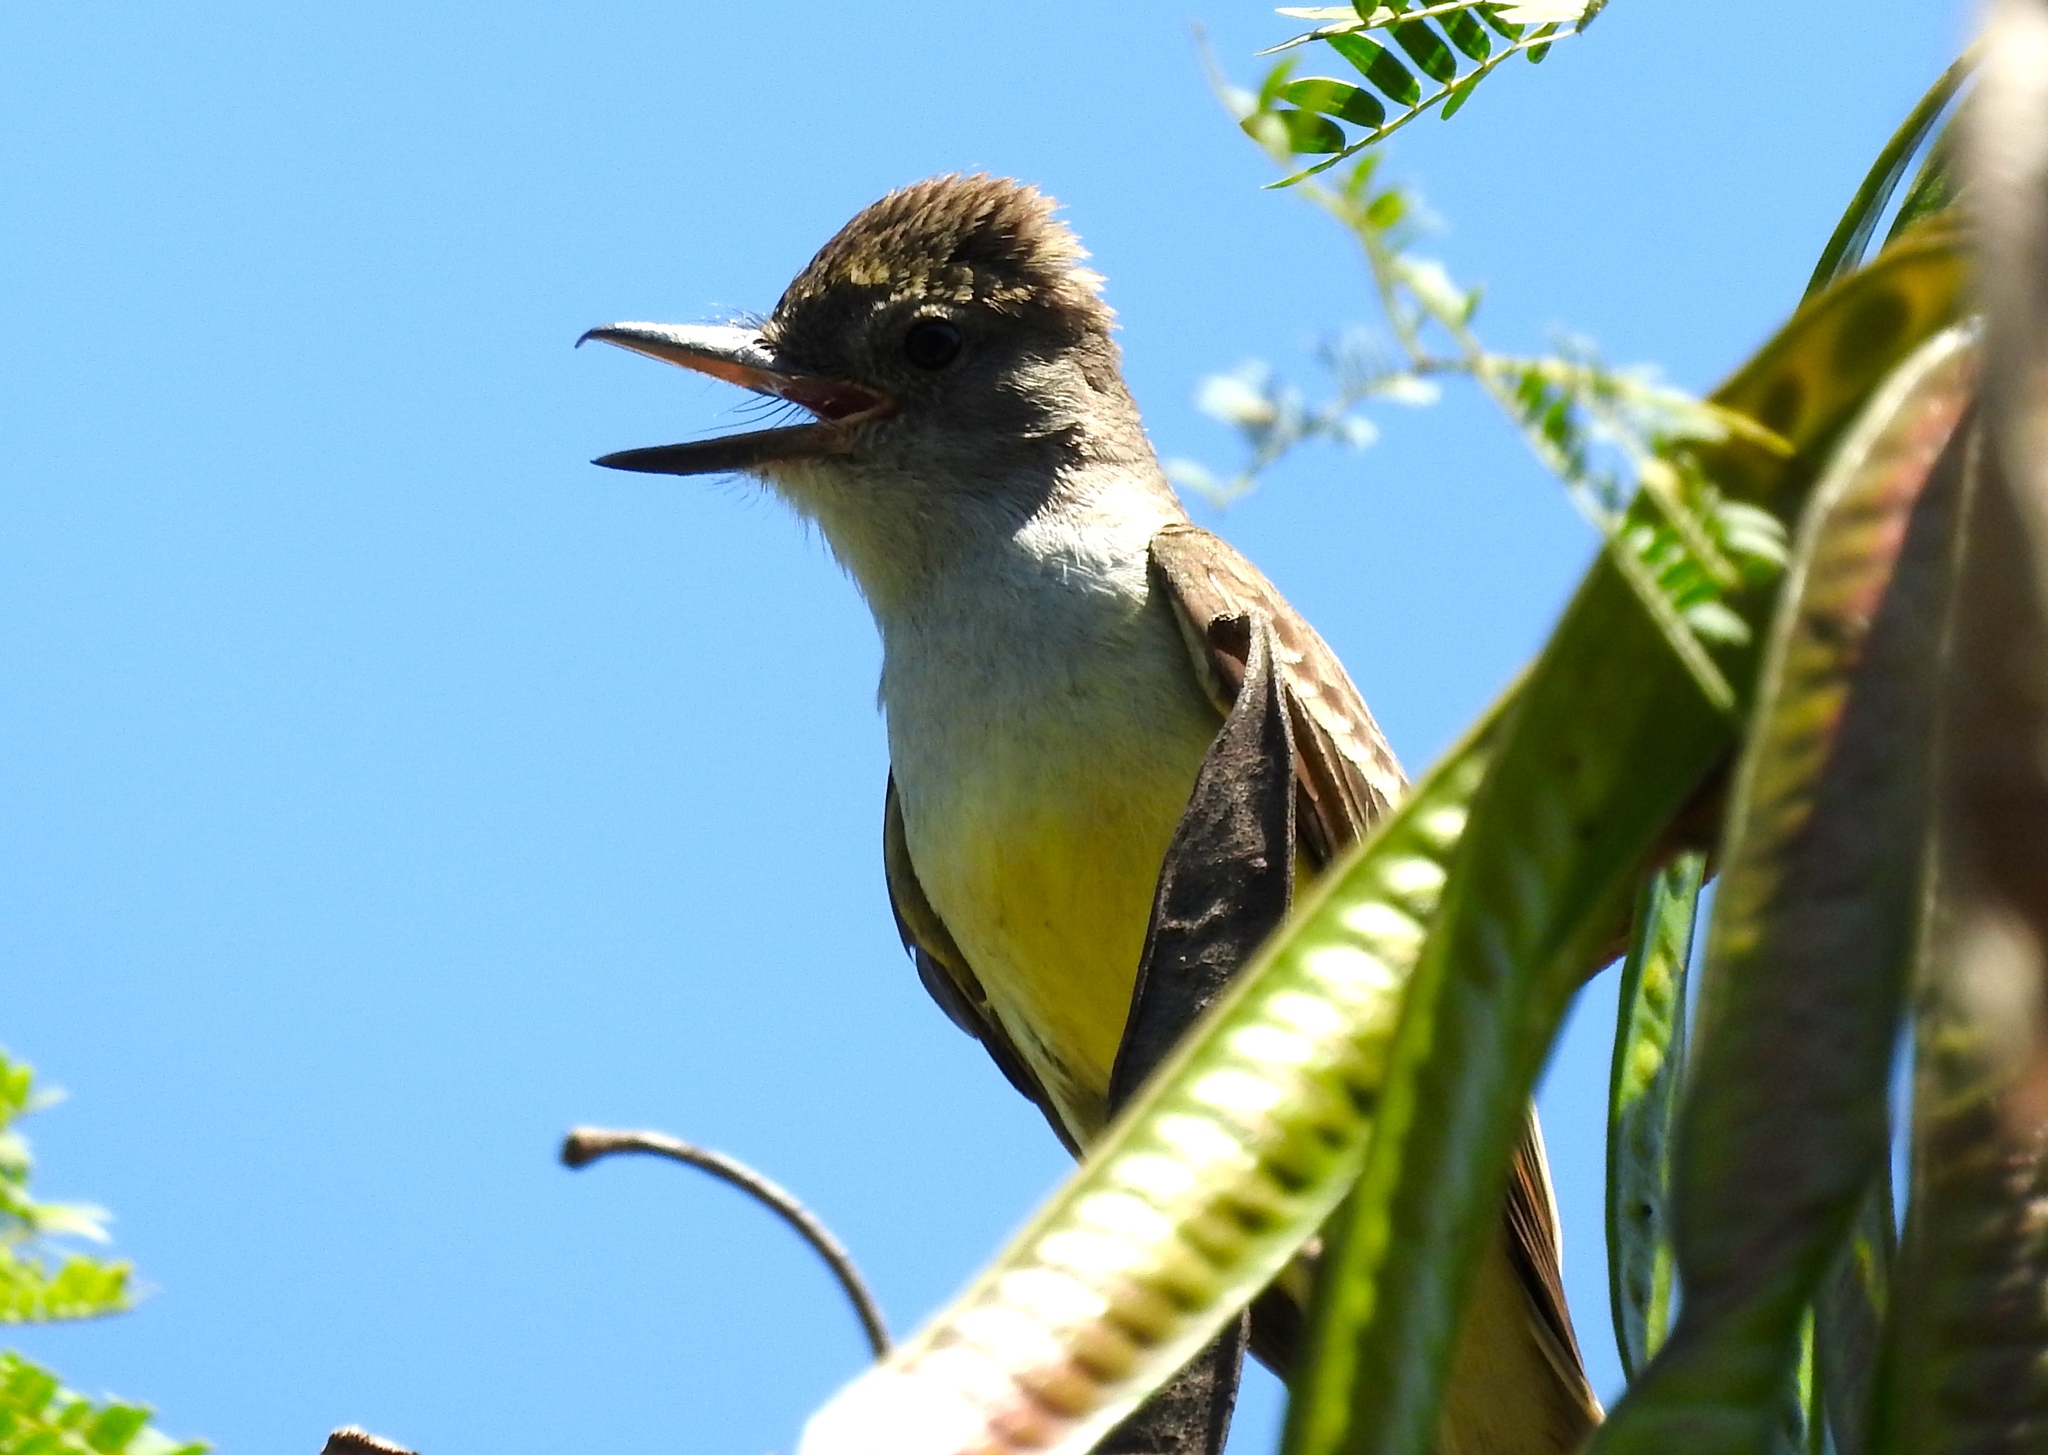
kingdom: Animalia
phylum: Chordata
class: Aves
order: Passeriformes
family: Tyrannidae
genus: Myiarchus
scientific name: Myiarchus tyrannulus
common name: Brown-crested flycatcher
